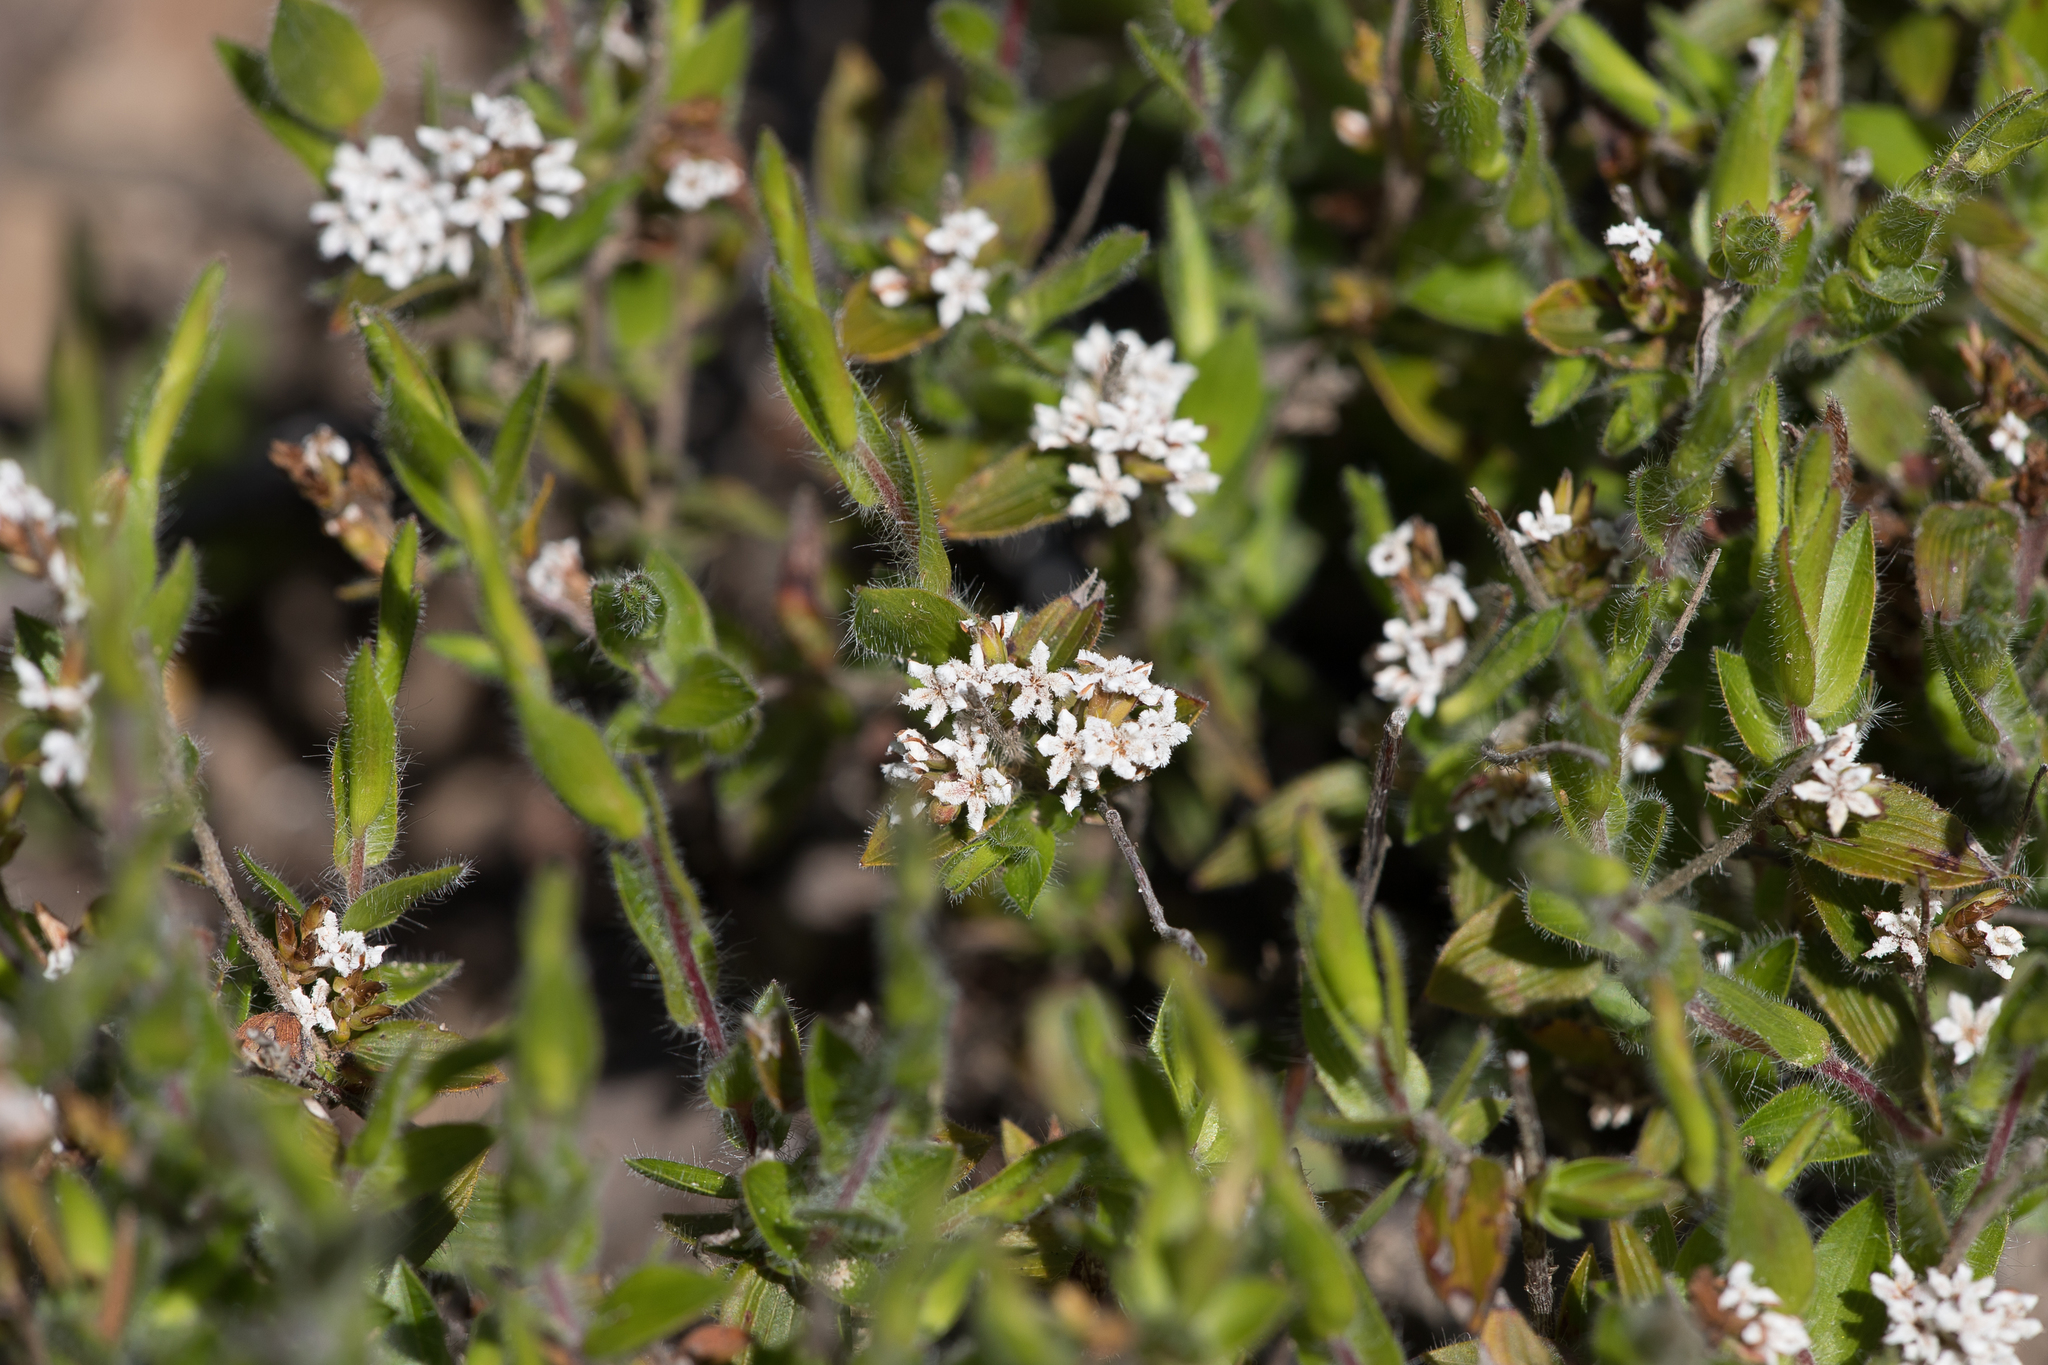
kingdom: Plantae
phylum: Tracheophyta
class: Magnoliopsida
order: Ericales
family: Ericaceae
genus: Leucopogon
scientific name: Leucopogon concurvus
